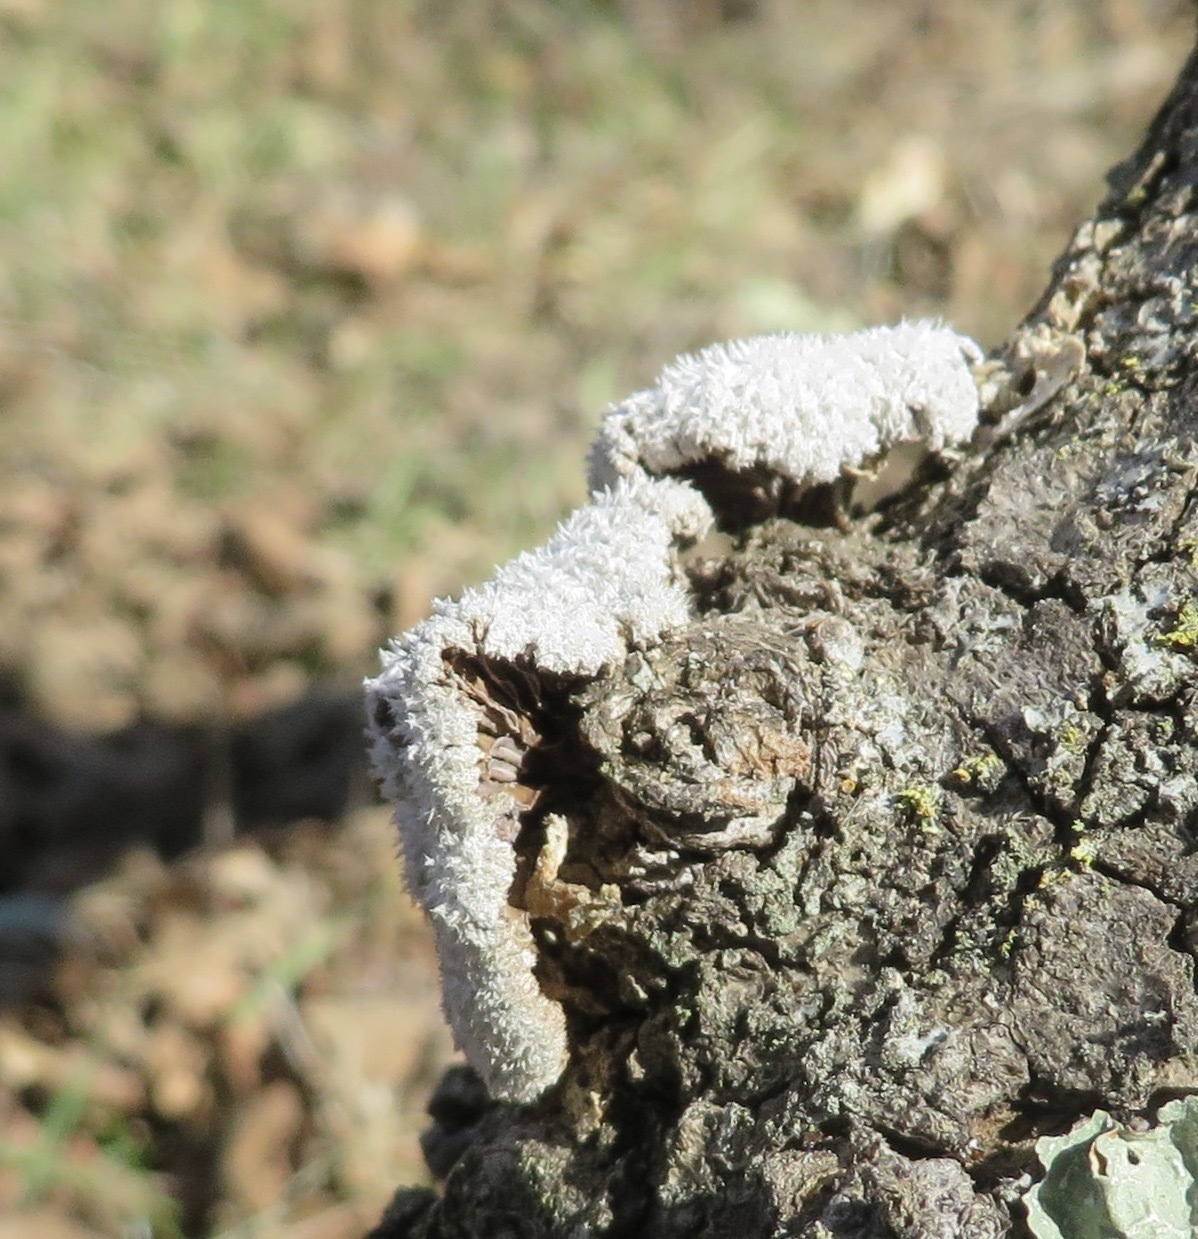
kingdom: Fungi
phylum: Basidiomycota
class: Agaricomycetes
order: Agaricales
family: Schizophyllaceae
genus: Schizophyllum
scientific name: Schizophyllum commune
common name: Common porecrust
